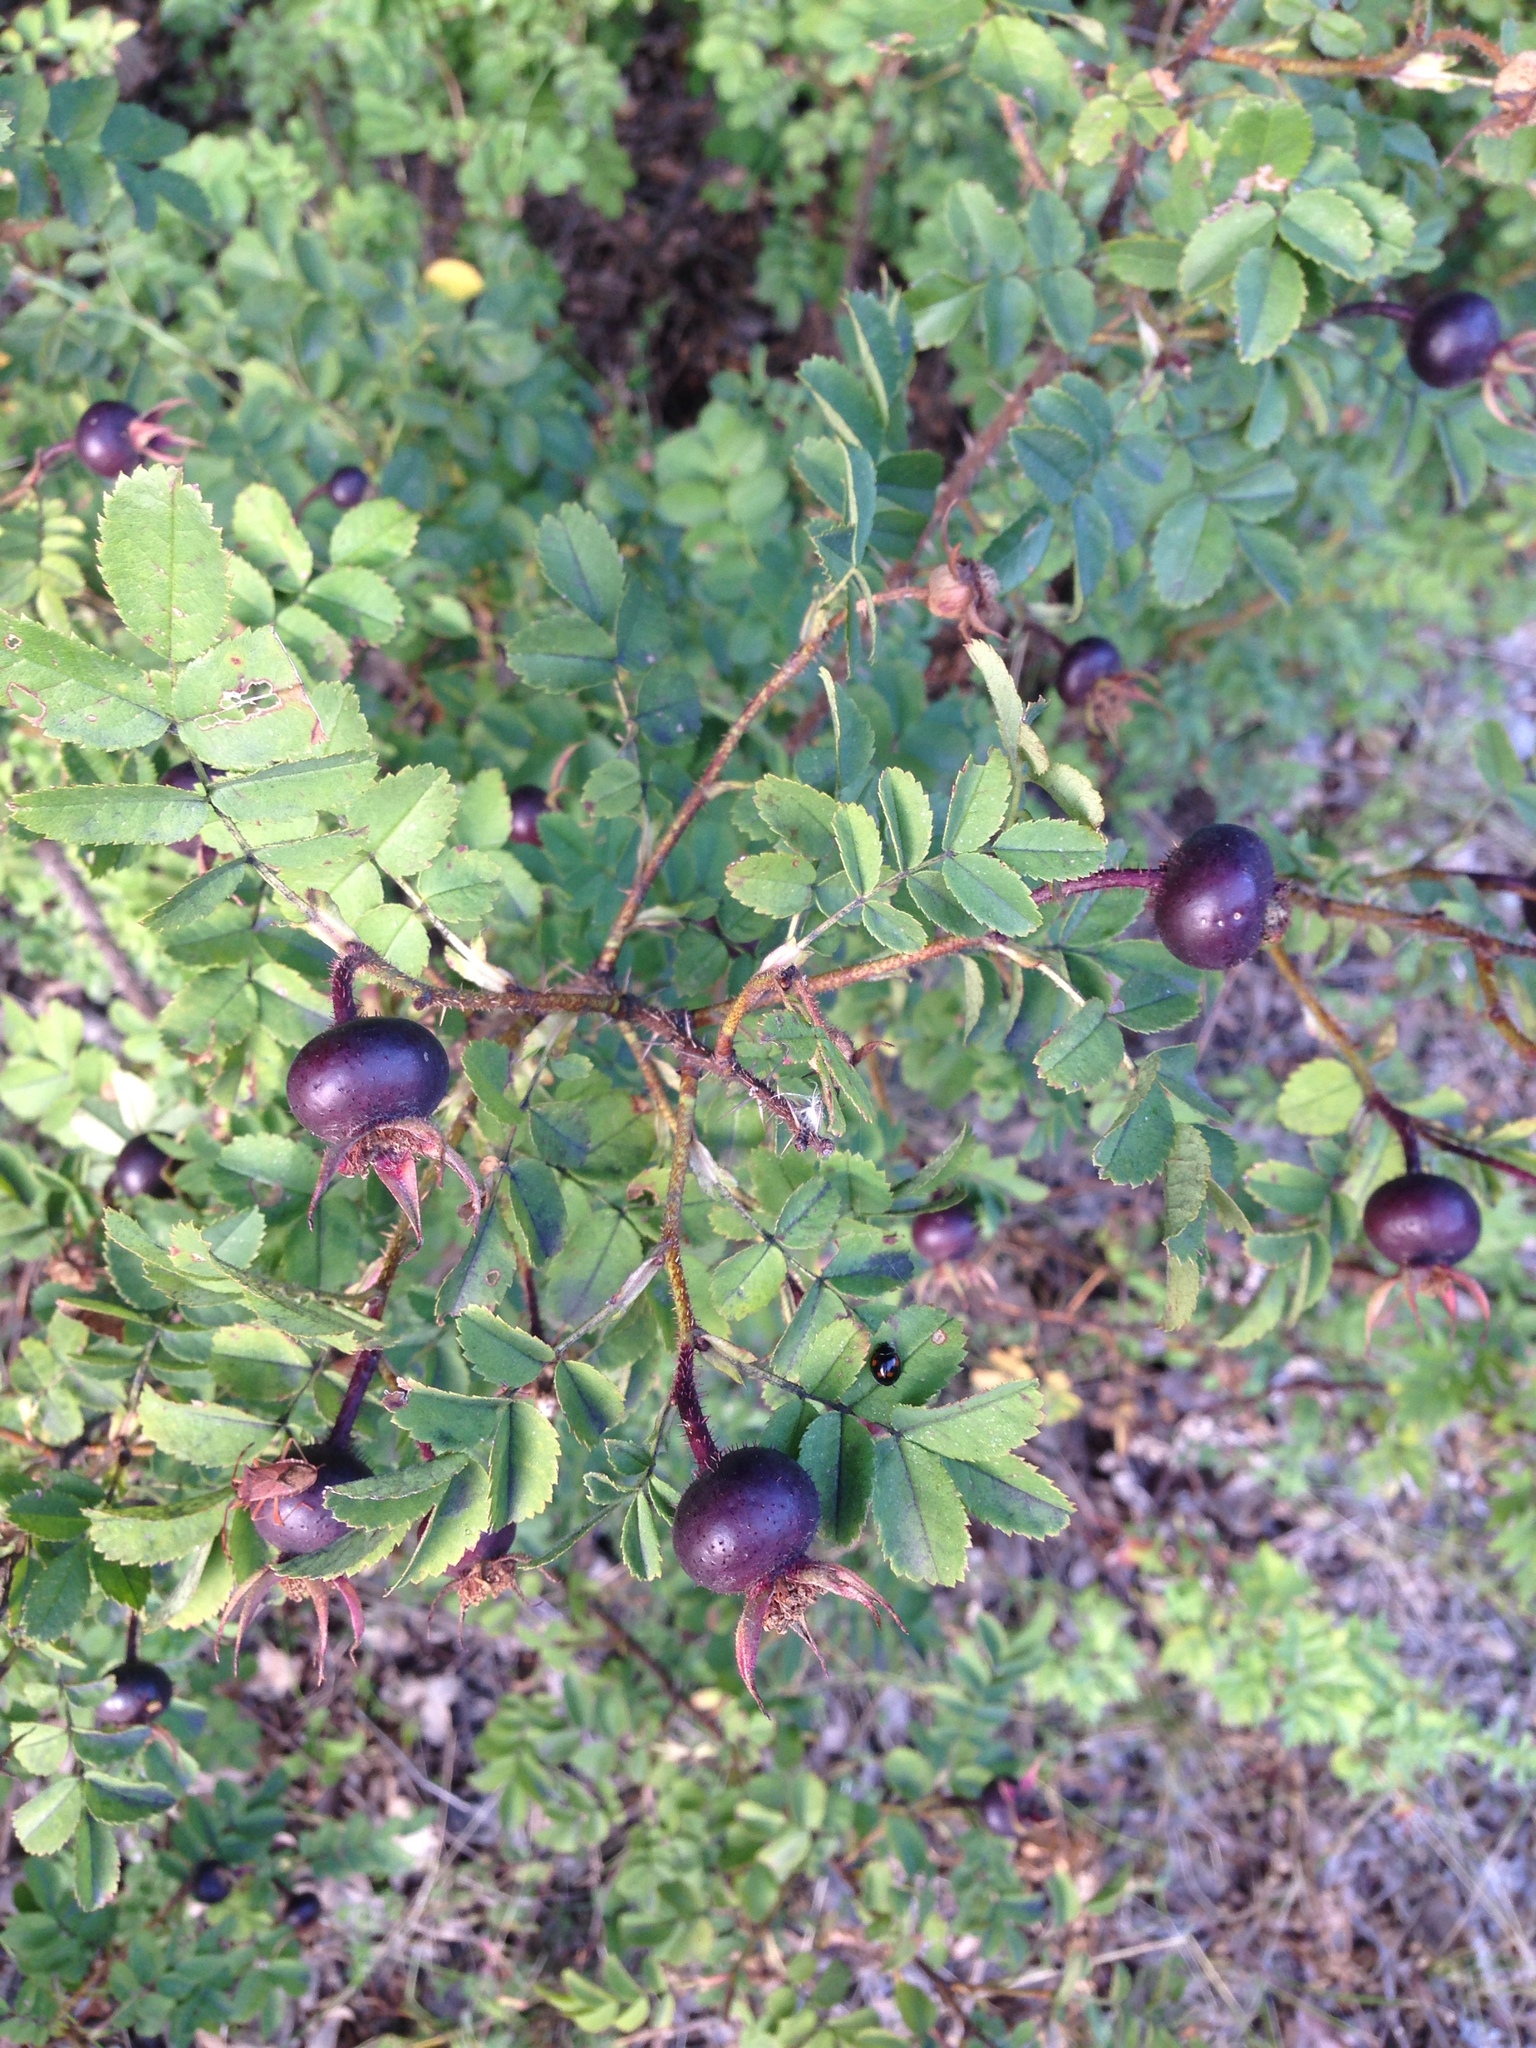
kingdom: Plantae
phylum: Tracheophyta
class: Magnoliopsida
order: Rosales
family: Rosaceae
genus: Rosa
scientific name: Rosa spinosissima
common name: Burnet rose
